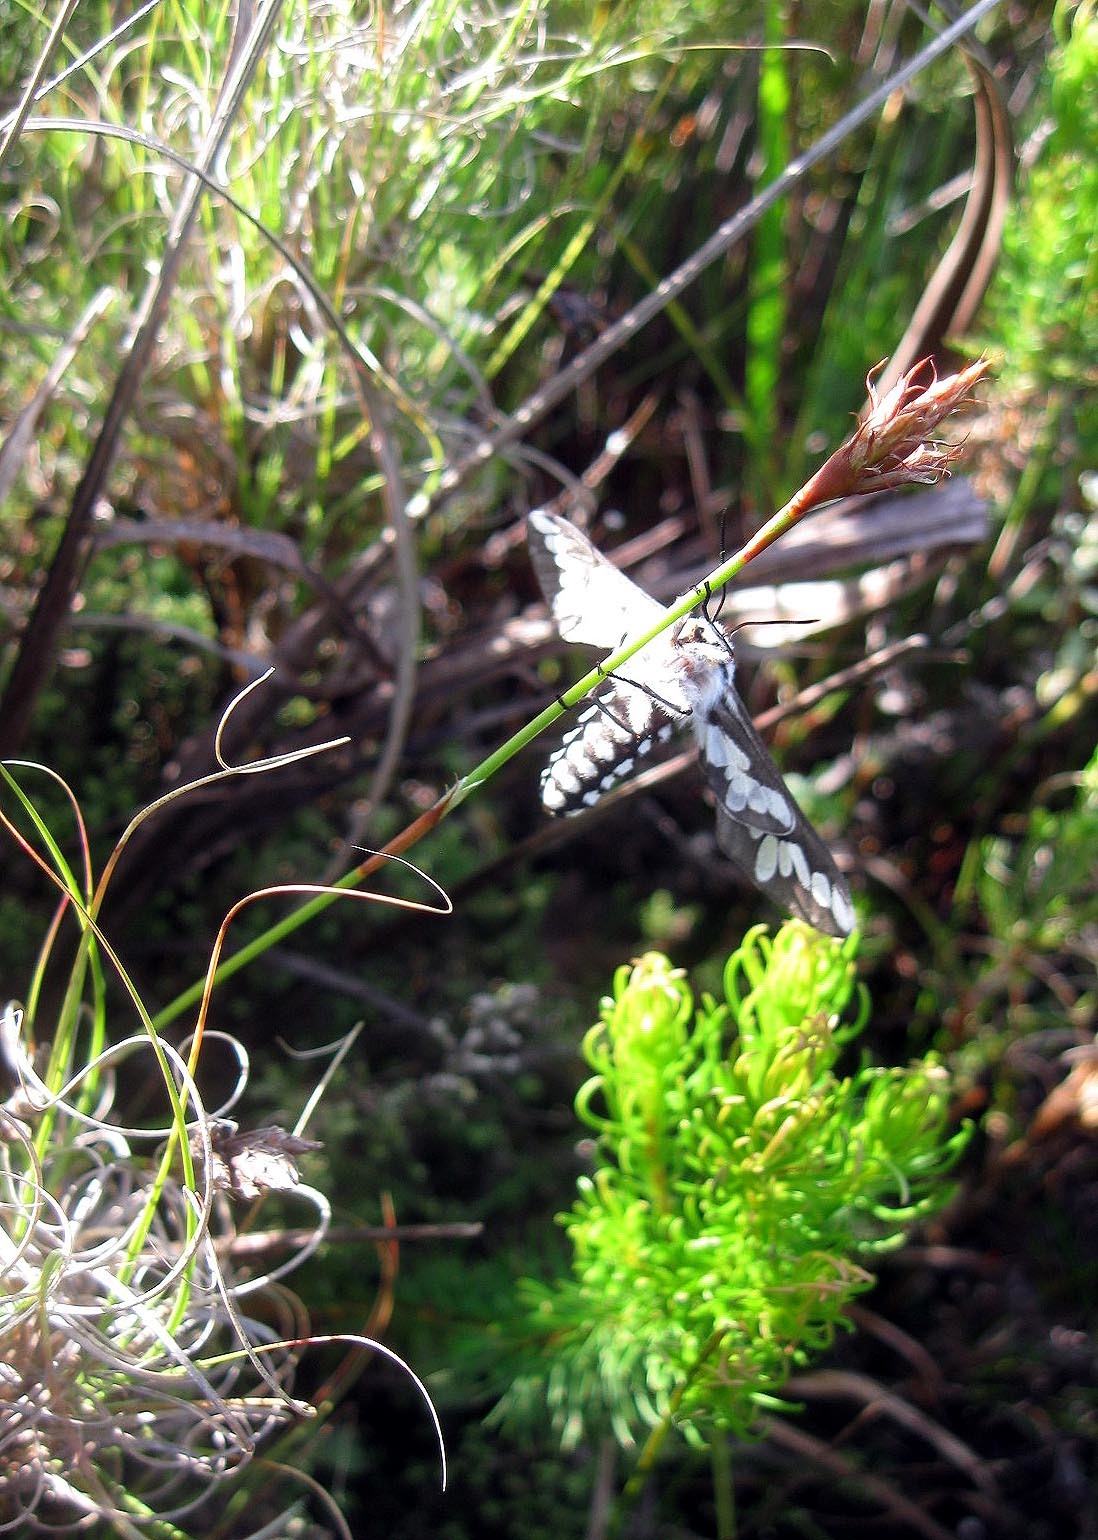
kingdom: Animalia
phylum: Arthropoda
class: Insecta
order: Lepidoptera
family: Erebidae
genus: Thyretes
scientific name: Thyretes hippotes
